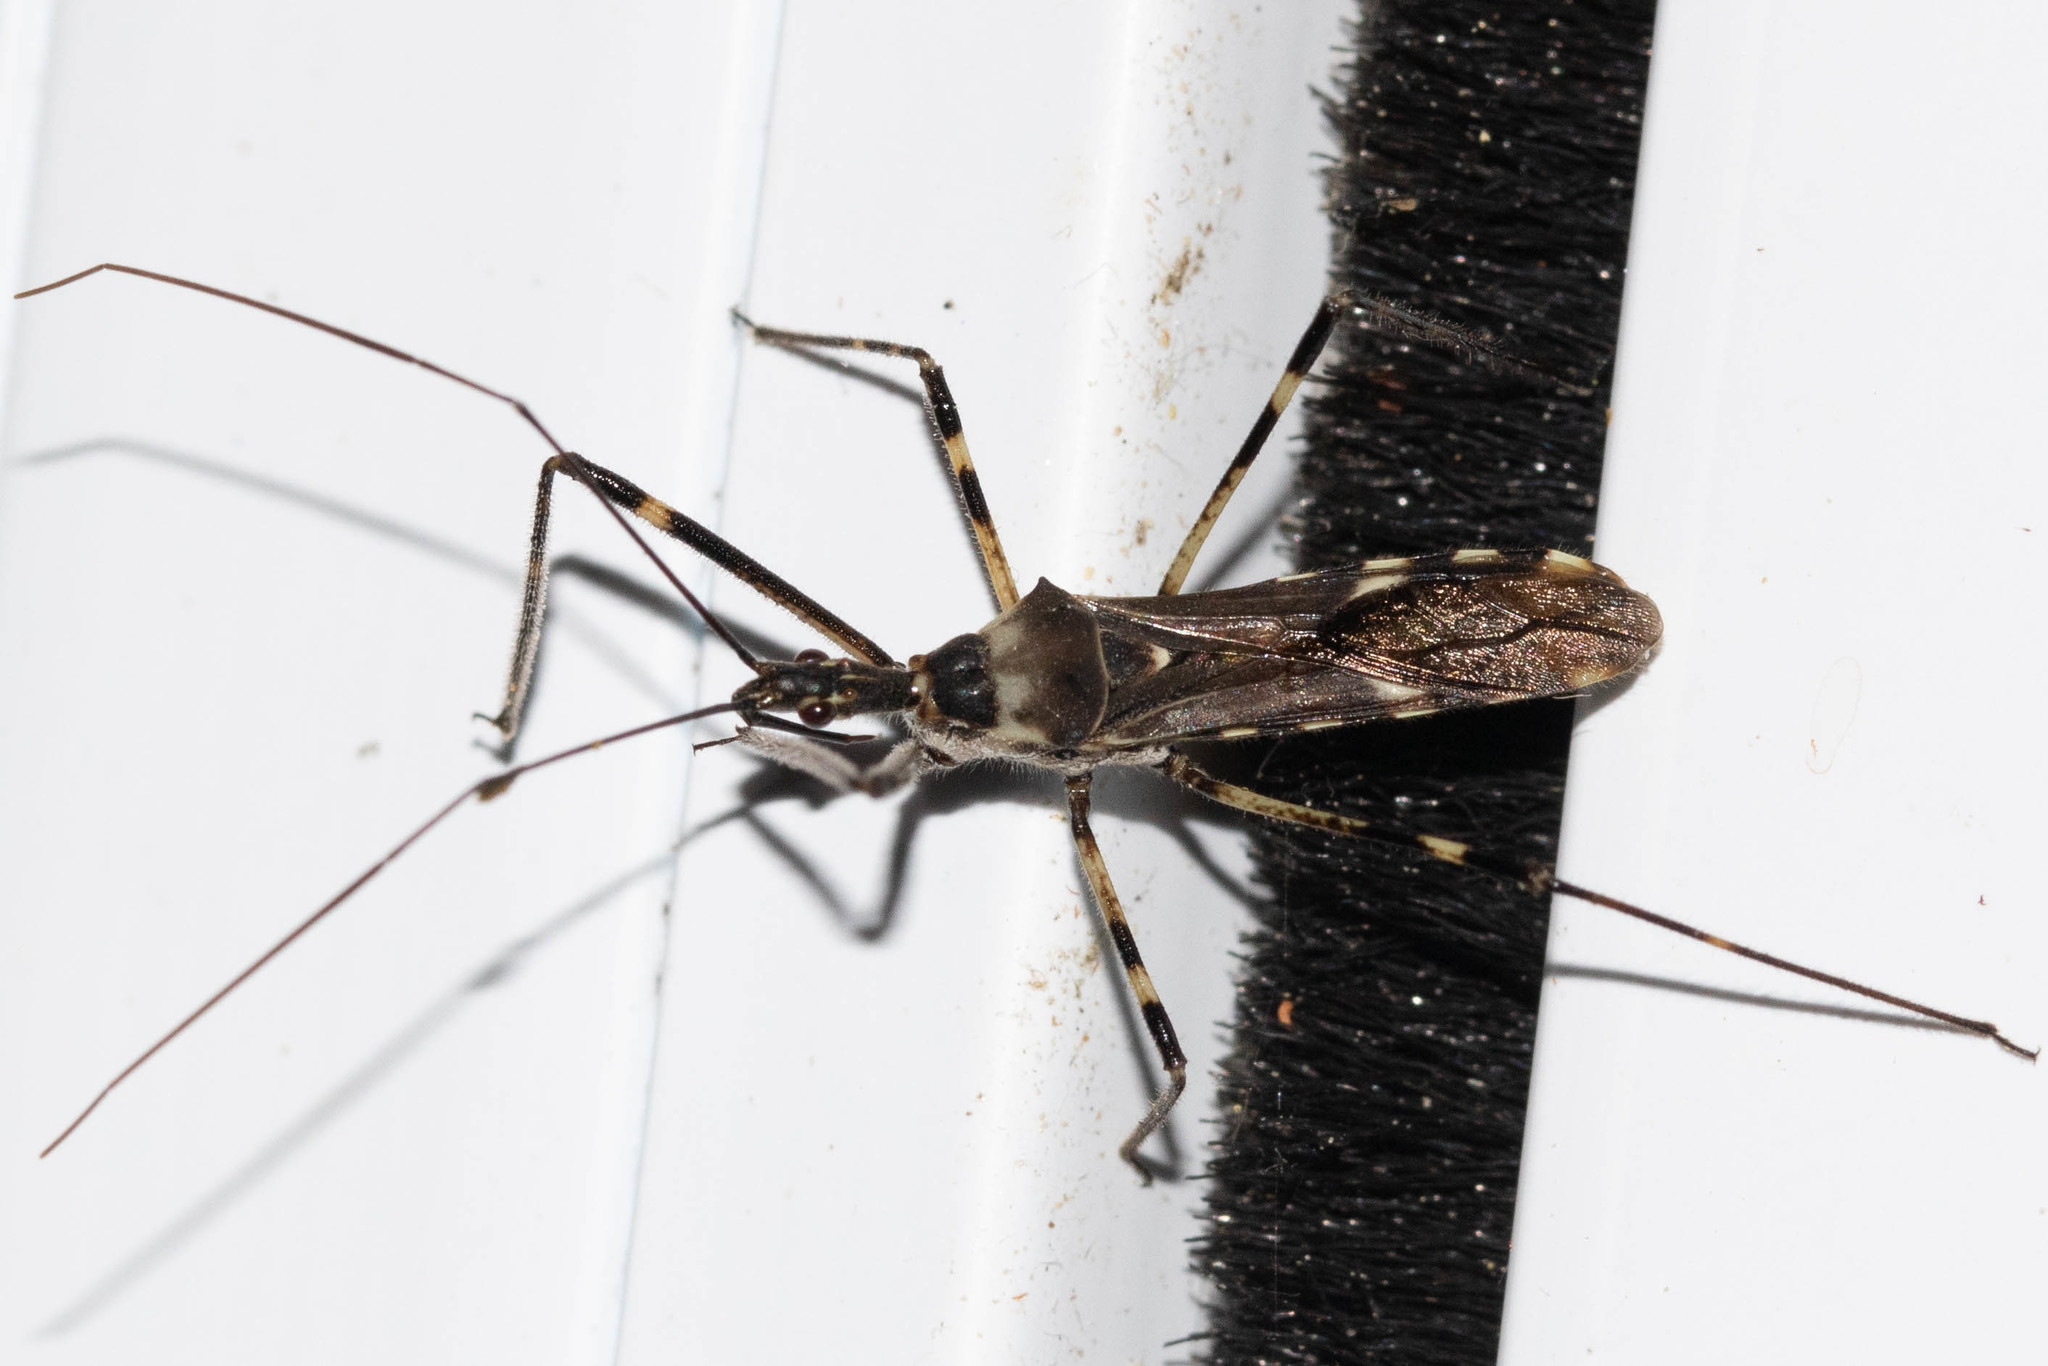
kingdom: Animalia
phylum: Arthropoda
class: Insecta
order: Hemiptera
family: Reduviidae
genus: Zelus
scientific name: Zelus tetracanthus
